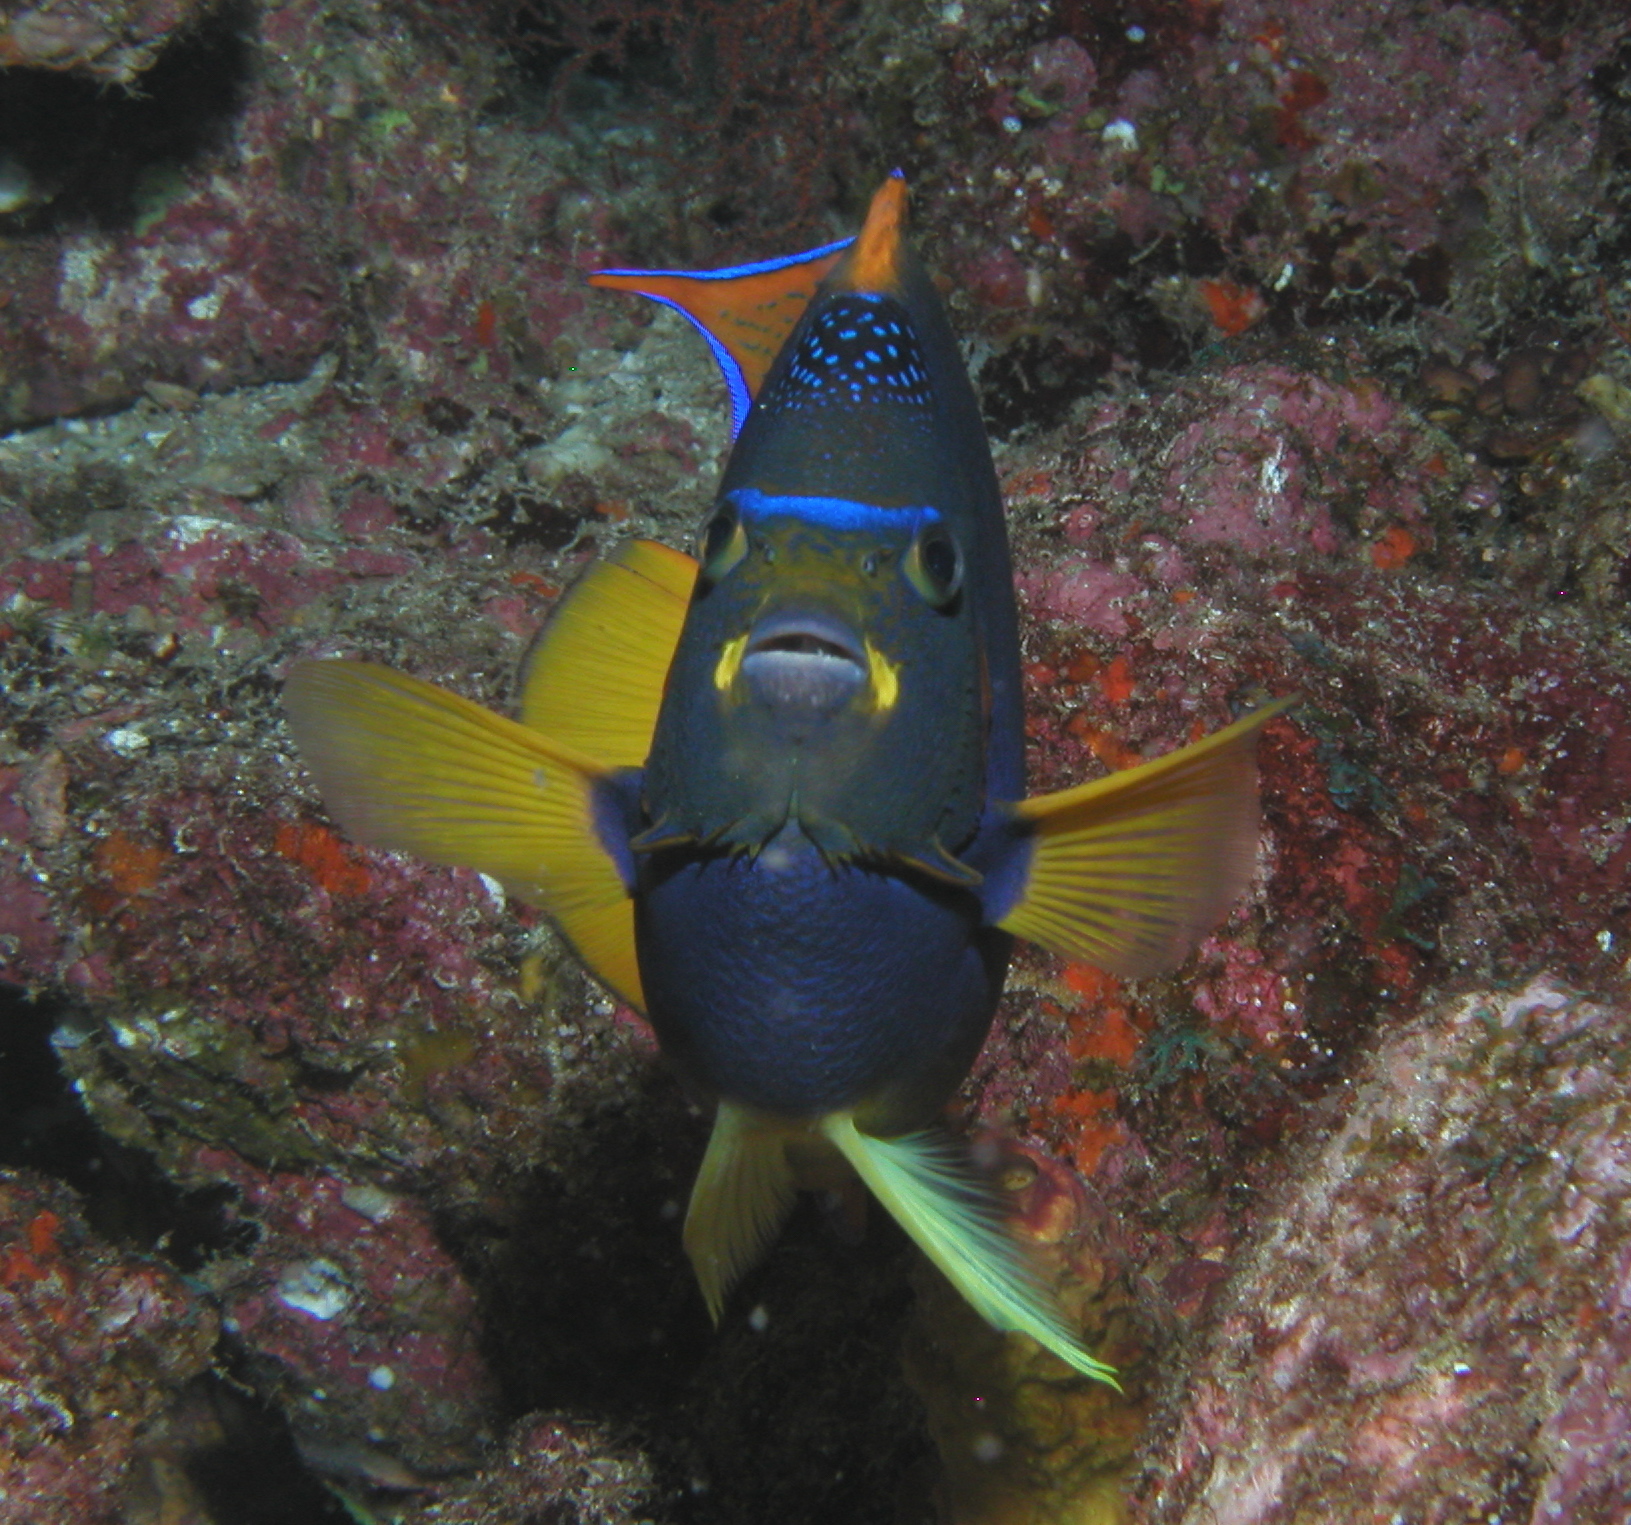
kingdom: Animalia
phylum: Chordata
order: Perciformes
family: Pomacanthidae
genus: Holacanthus
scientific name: Holacanthus passer
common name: King angelfish
